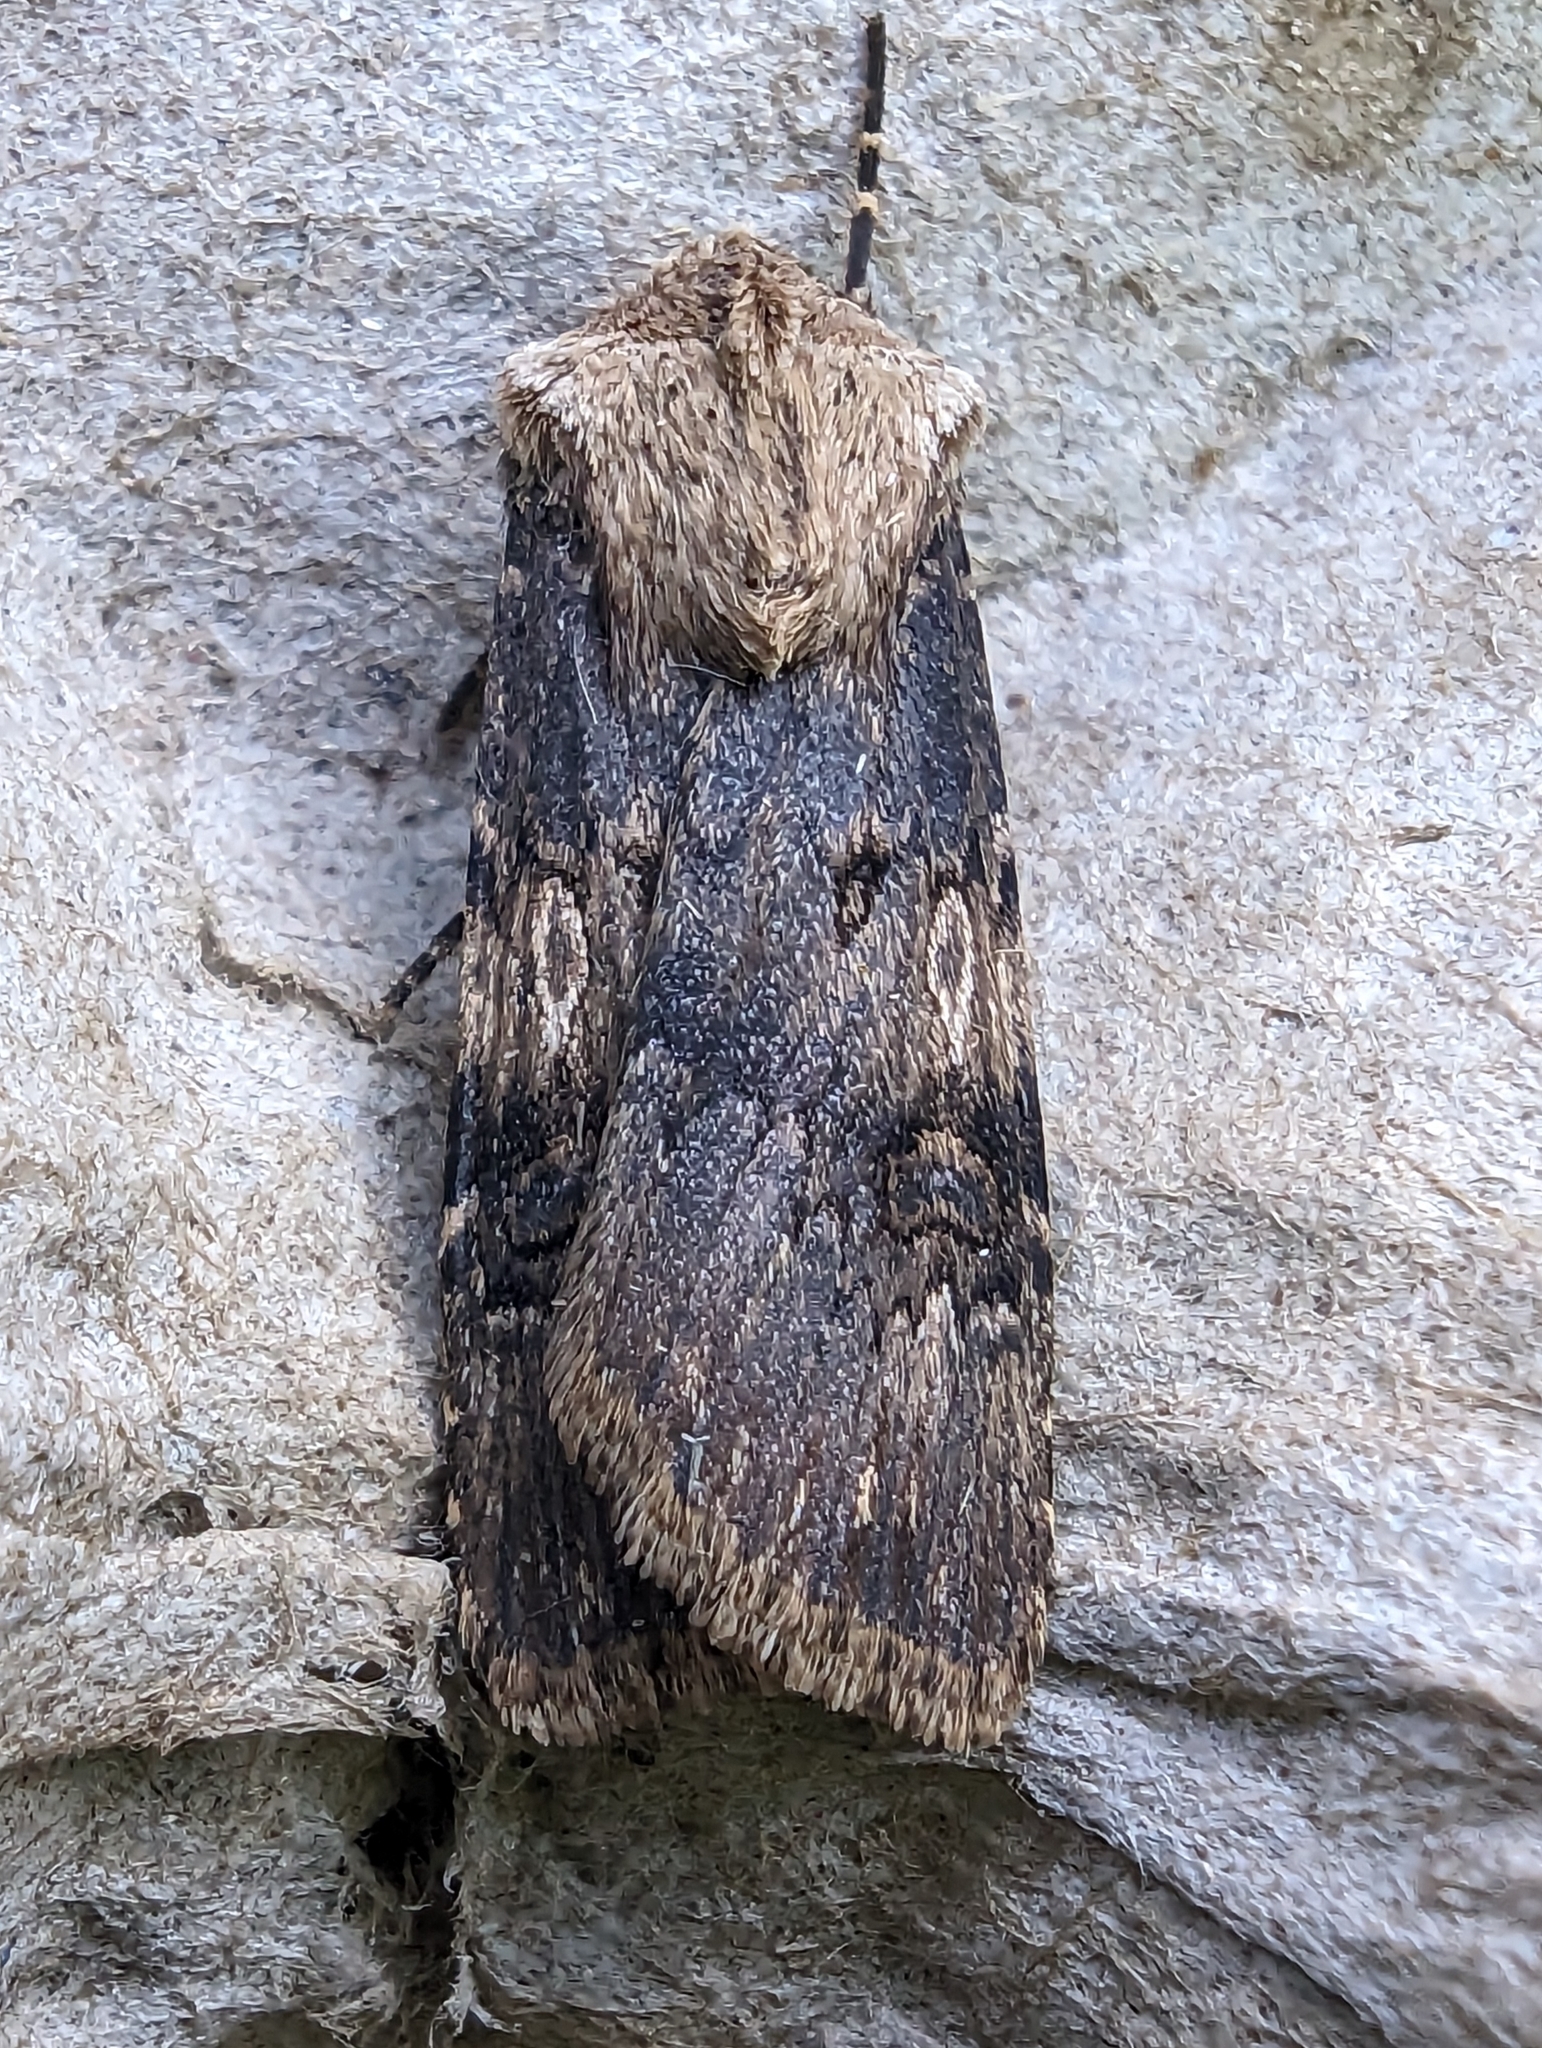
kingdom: Animalia
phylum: Arthropoda
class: Insecta
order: Lepidoptera
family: Noctuidae
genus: Agrotis
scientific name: Agrotis puta
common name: Shuttle-shaped dart
